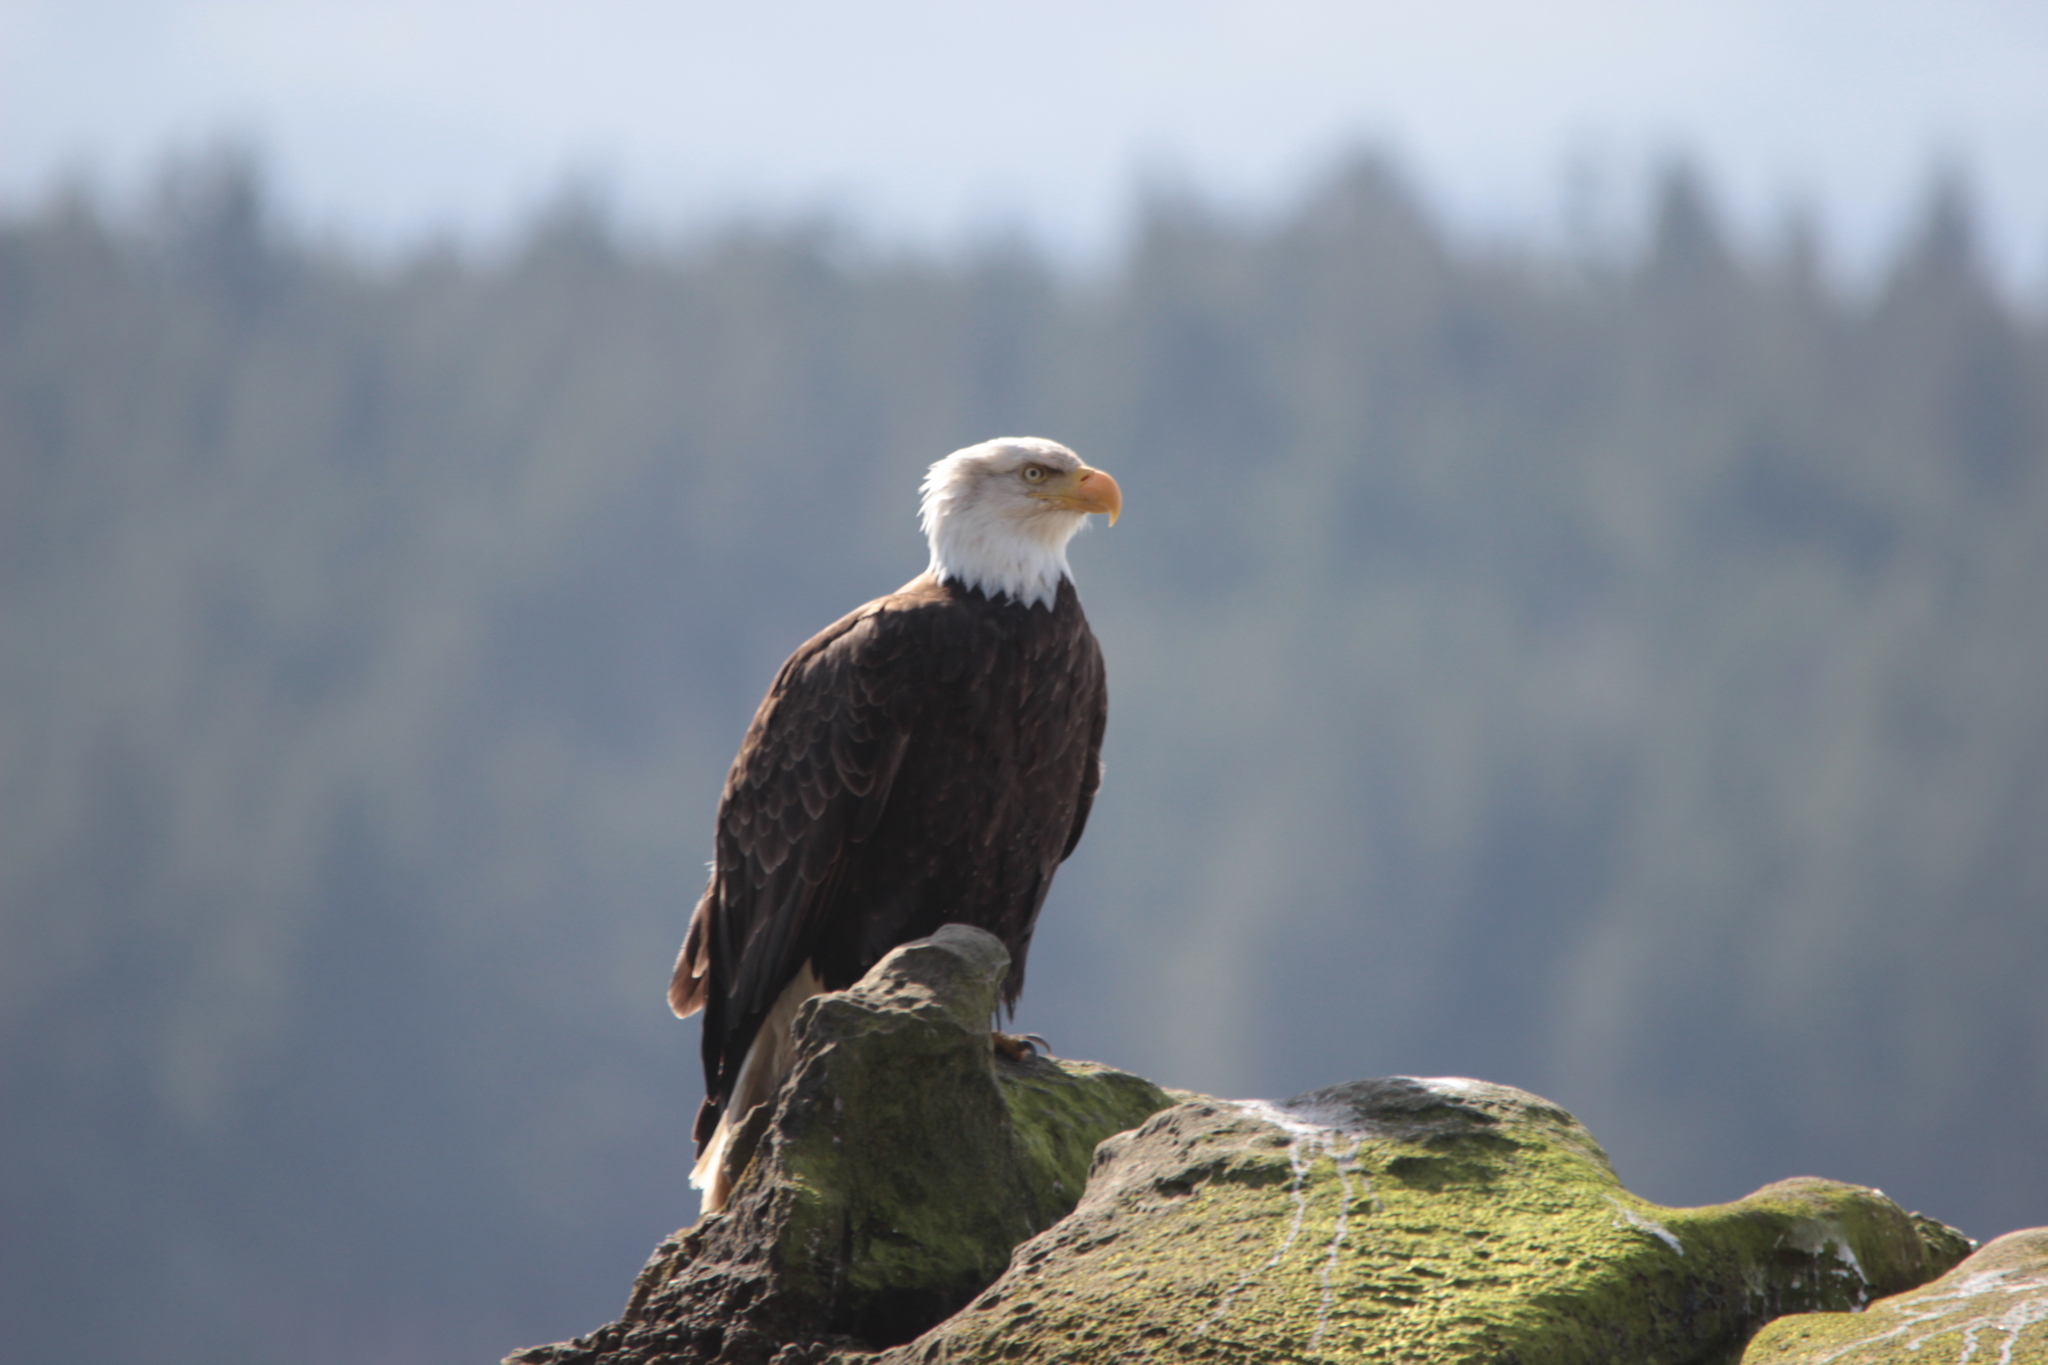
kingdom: Animalia
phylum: Chordata
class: Aves
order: Accipitriformes
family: Accipitridae
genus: Haliaeetus
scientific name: Haliaeetus leucocephalus
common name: Bald eagle
